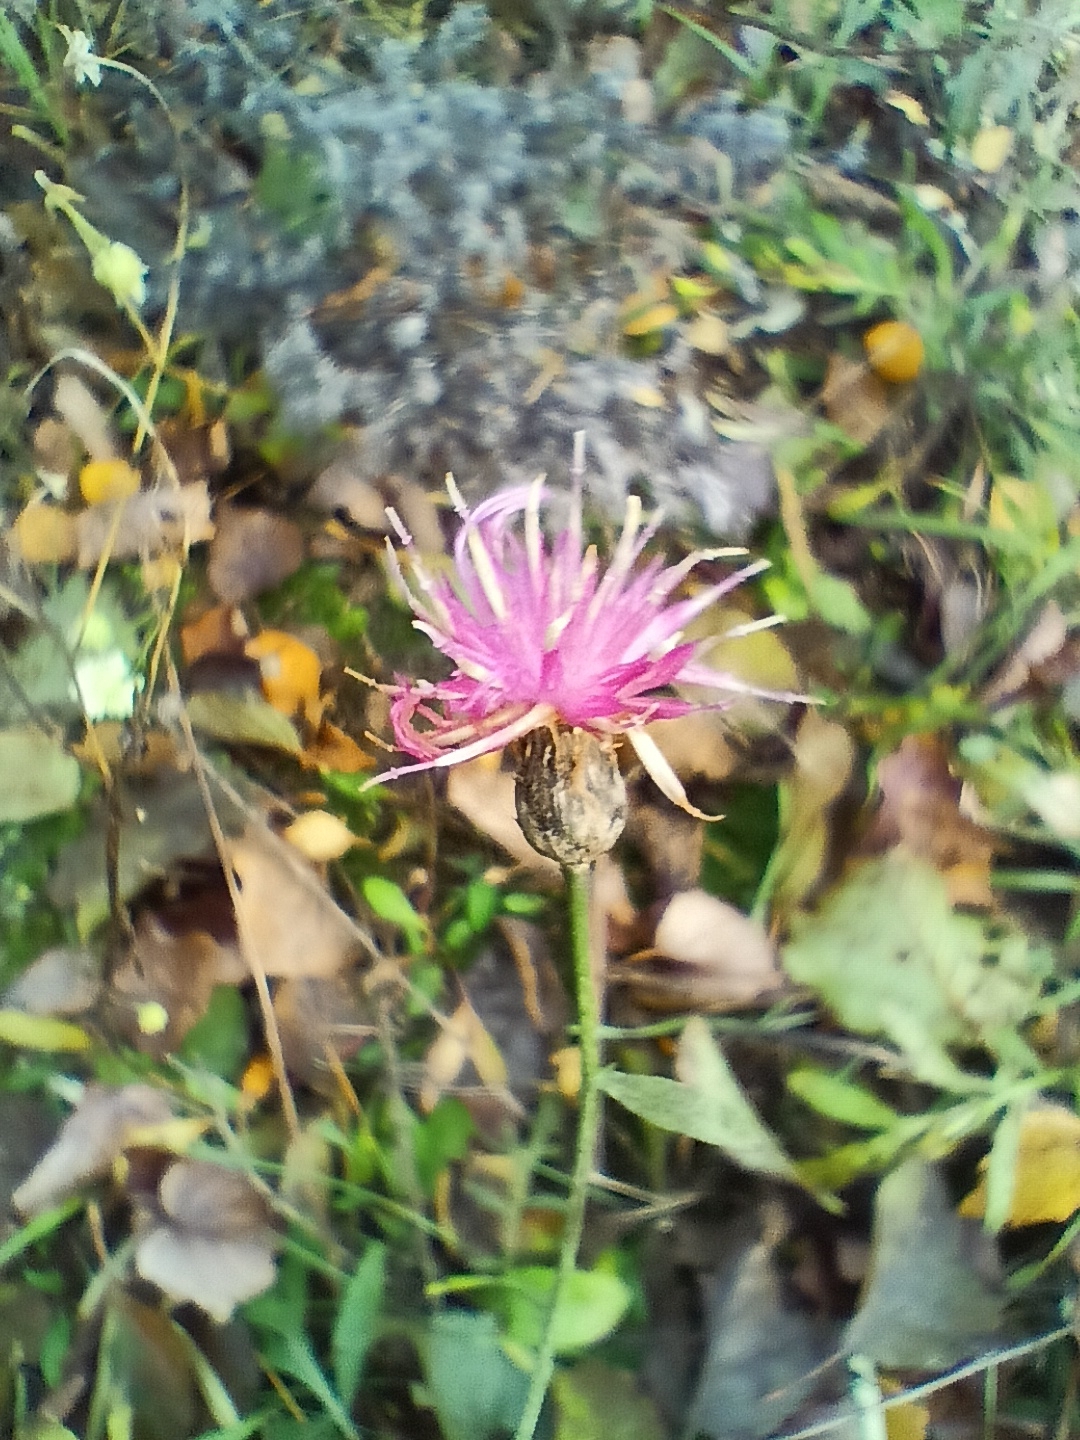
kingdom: Plantae
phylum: Tracheophyta
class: Magnoliopsida
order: Asterales
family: Asteraceae
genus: Centaurea
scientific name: Centaurea stoebe
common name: Spotted knapweed
